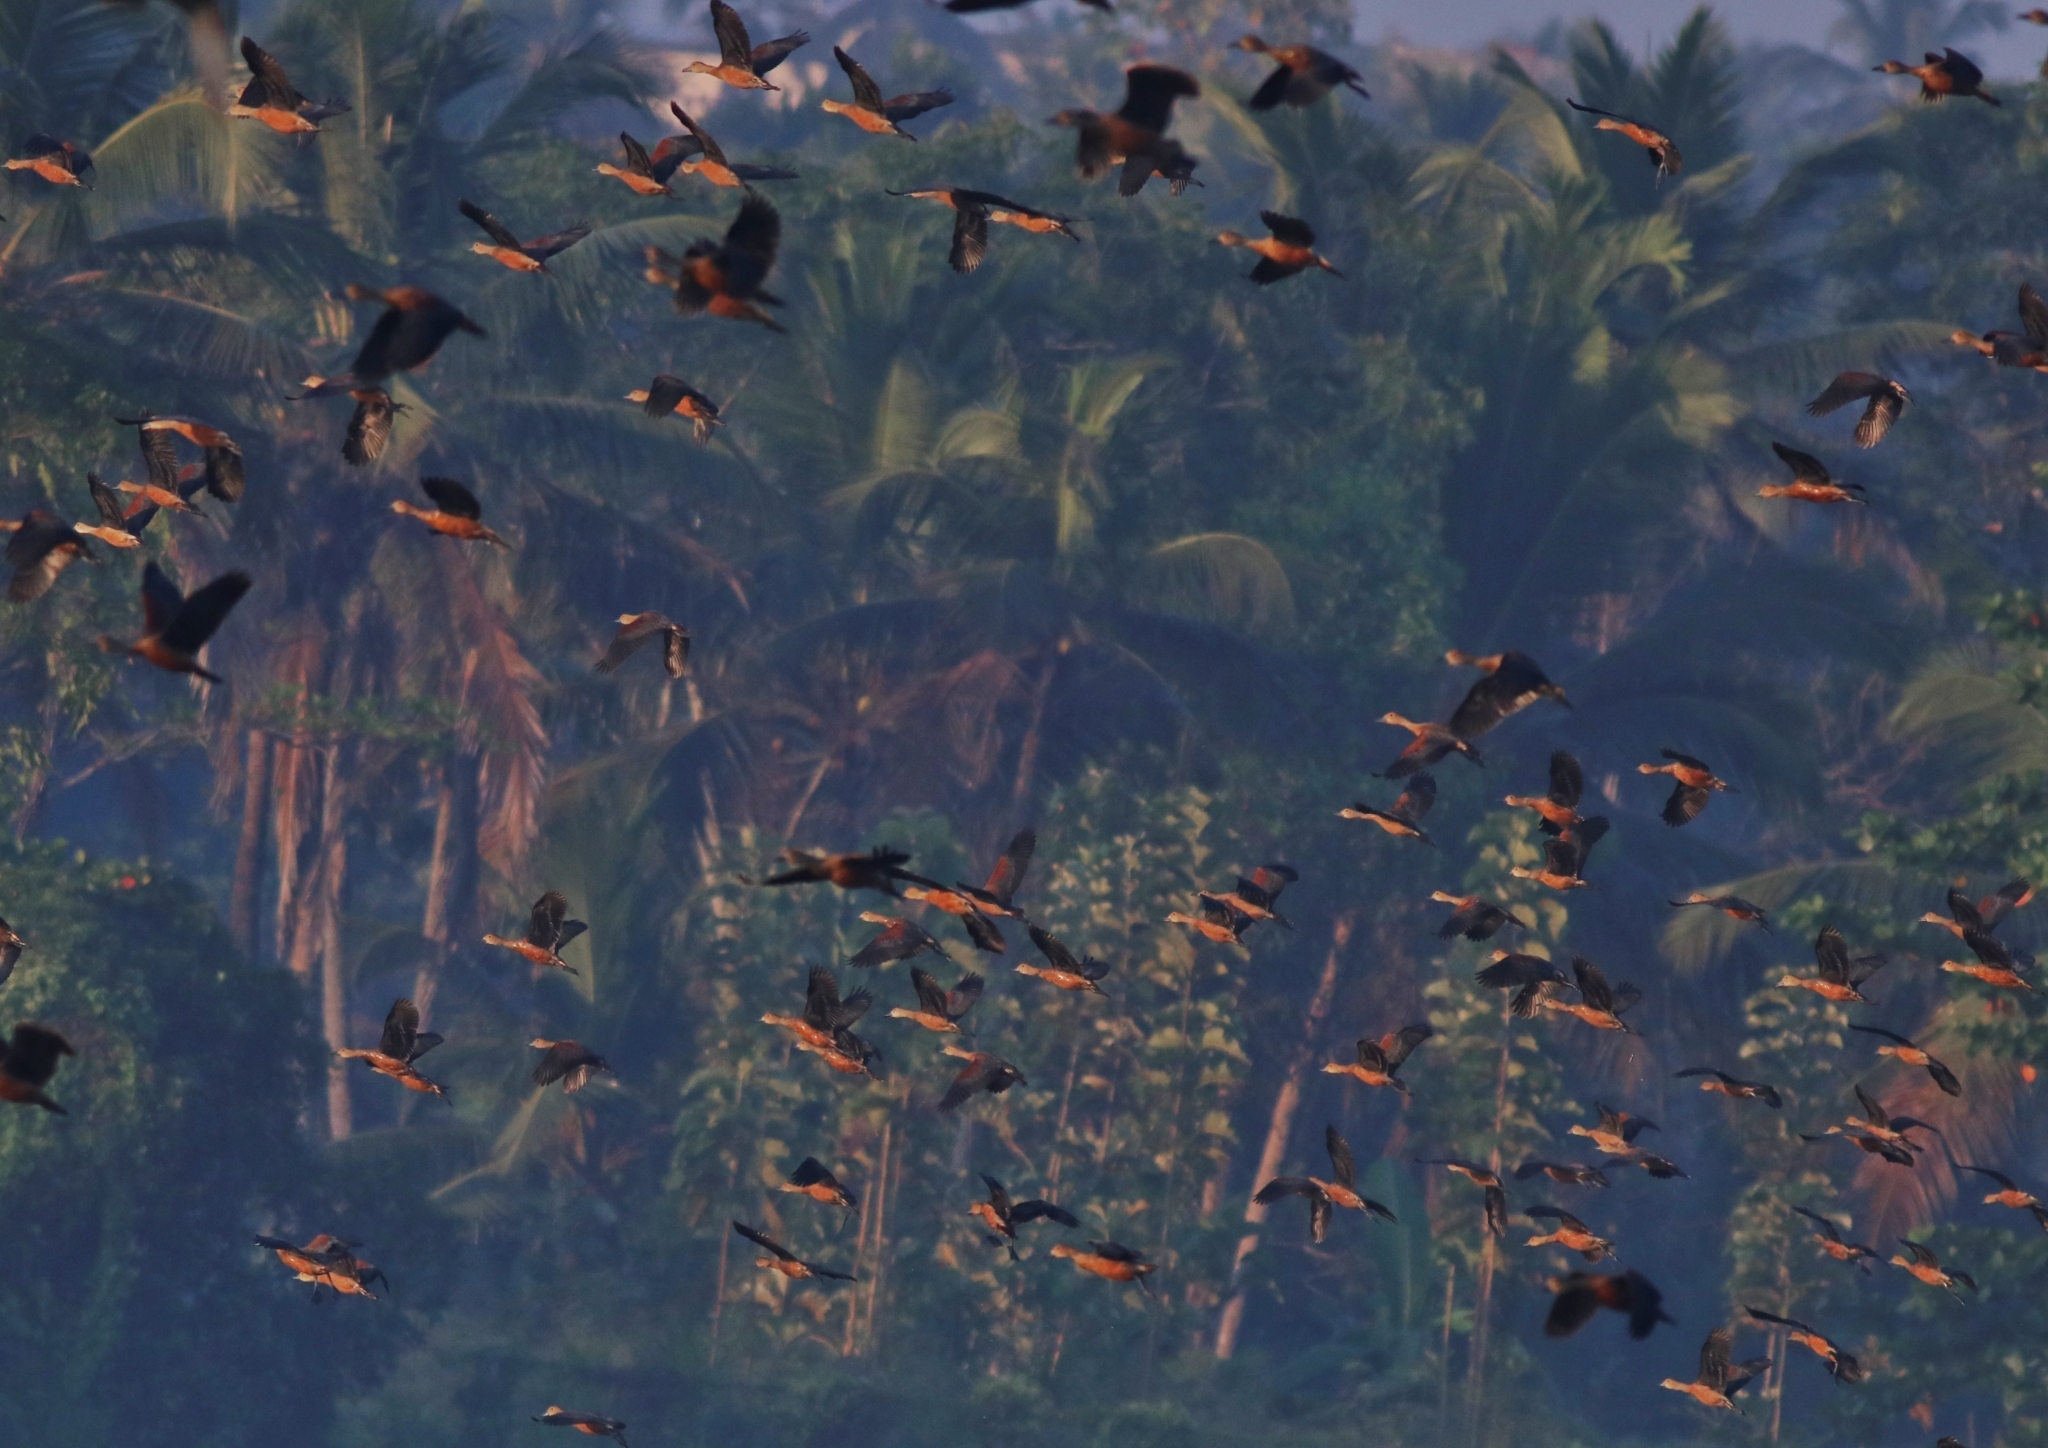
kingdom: Animalia
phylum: Chordata
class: Aves
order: Anseriformes
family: Anatidae
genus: Dendrocygna
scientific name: Dendrocygna javanica
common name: Lesser whistling-duck
